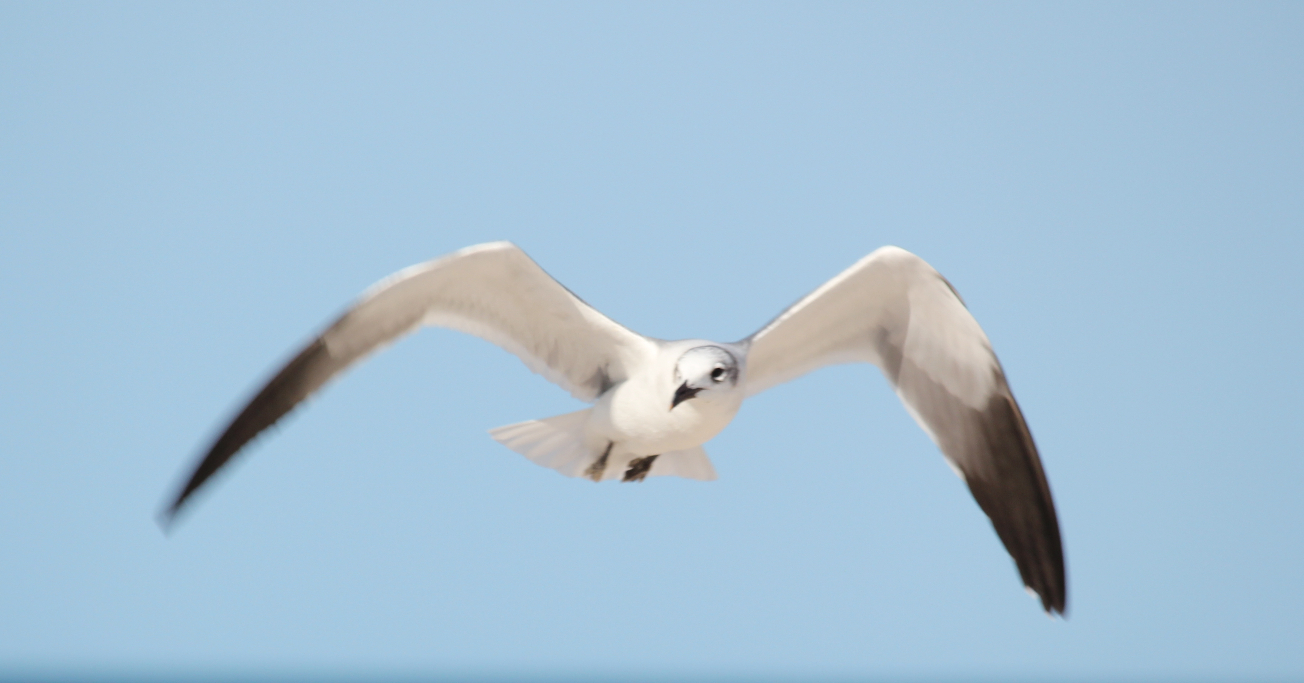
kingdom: Animalia
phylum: Chordata
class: Aves
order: Charadriiformes
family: Laridae
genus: Leucophaeus
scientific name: Leucophaeus atricilla
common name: Laughing gull
